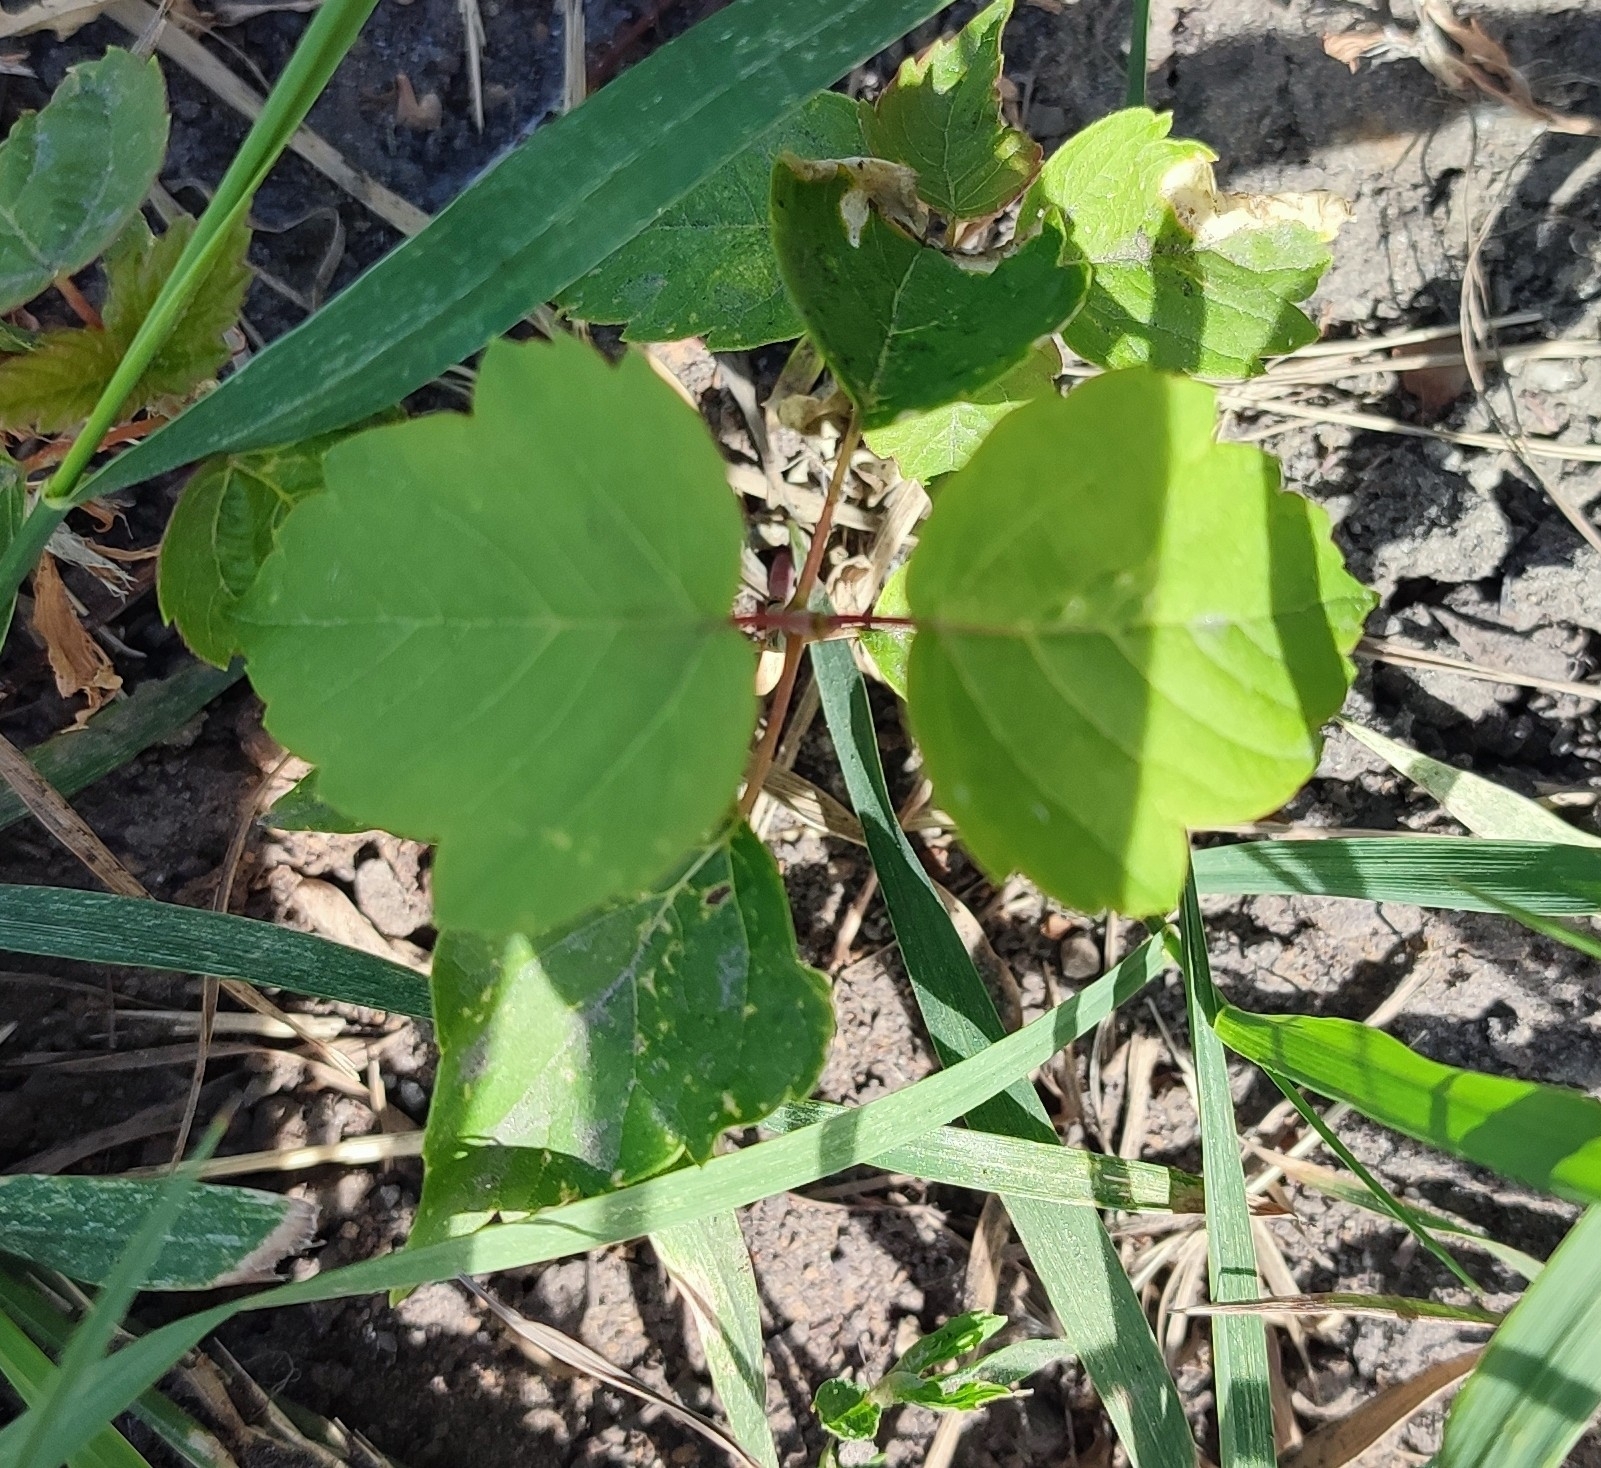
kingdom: Plantae
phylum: Tracheophyta
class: Magnoliopsida
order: Sapindales
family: Sapindaceae
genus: Acer
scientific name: Acer negundo
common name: Ashleaf maple
